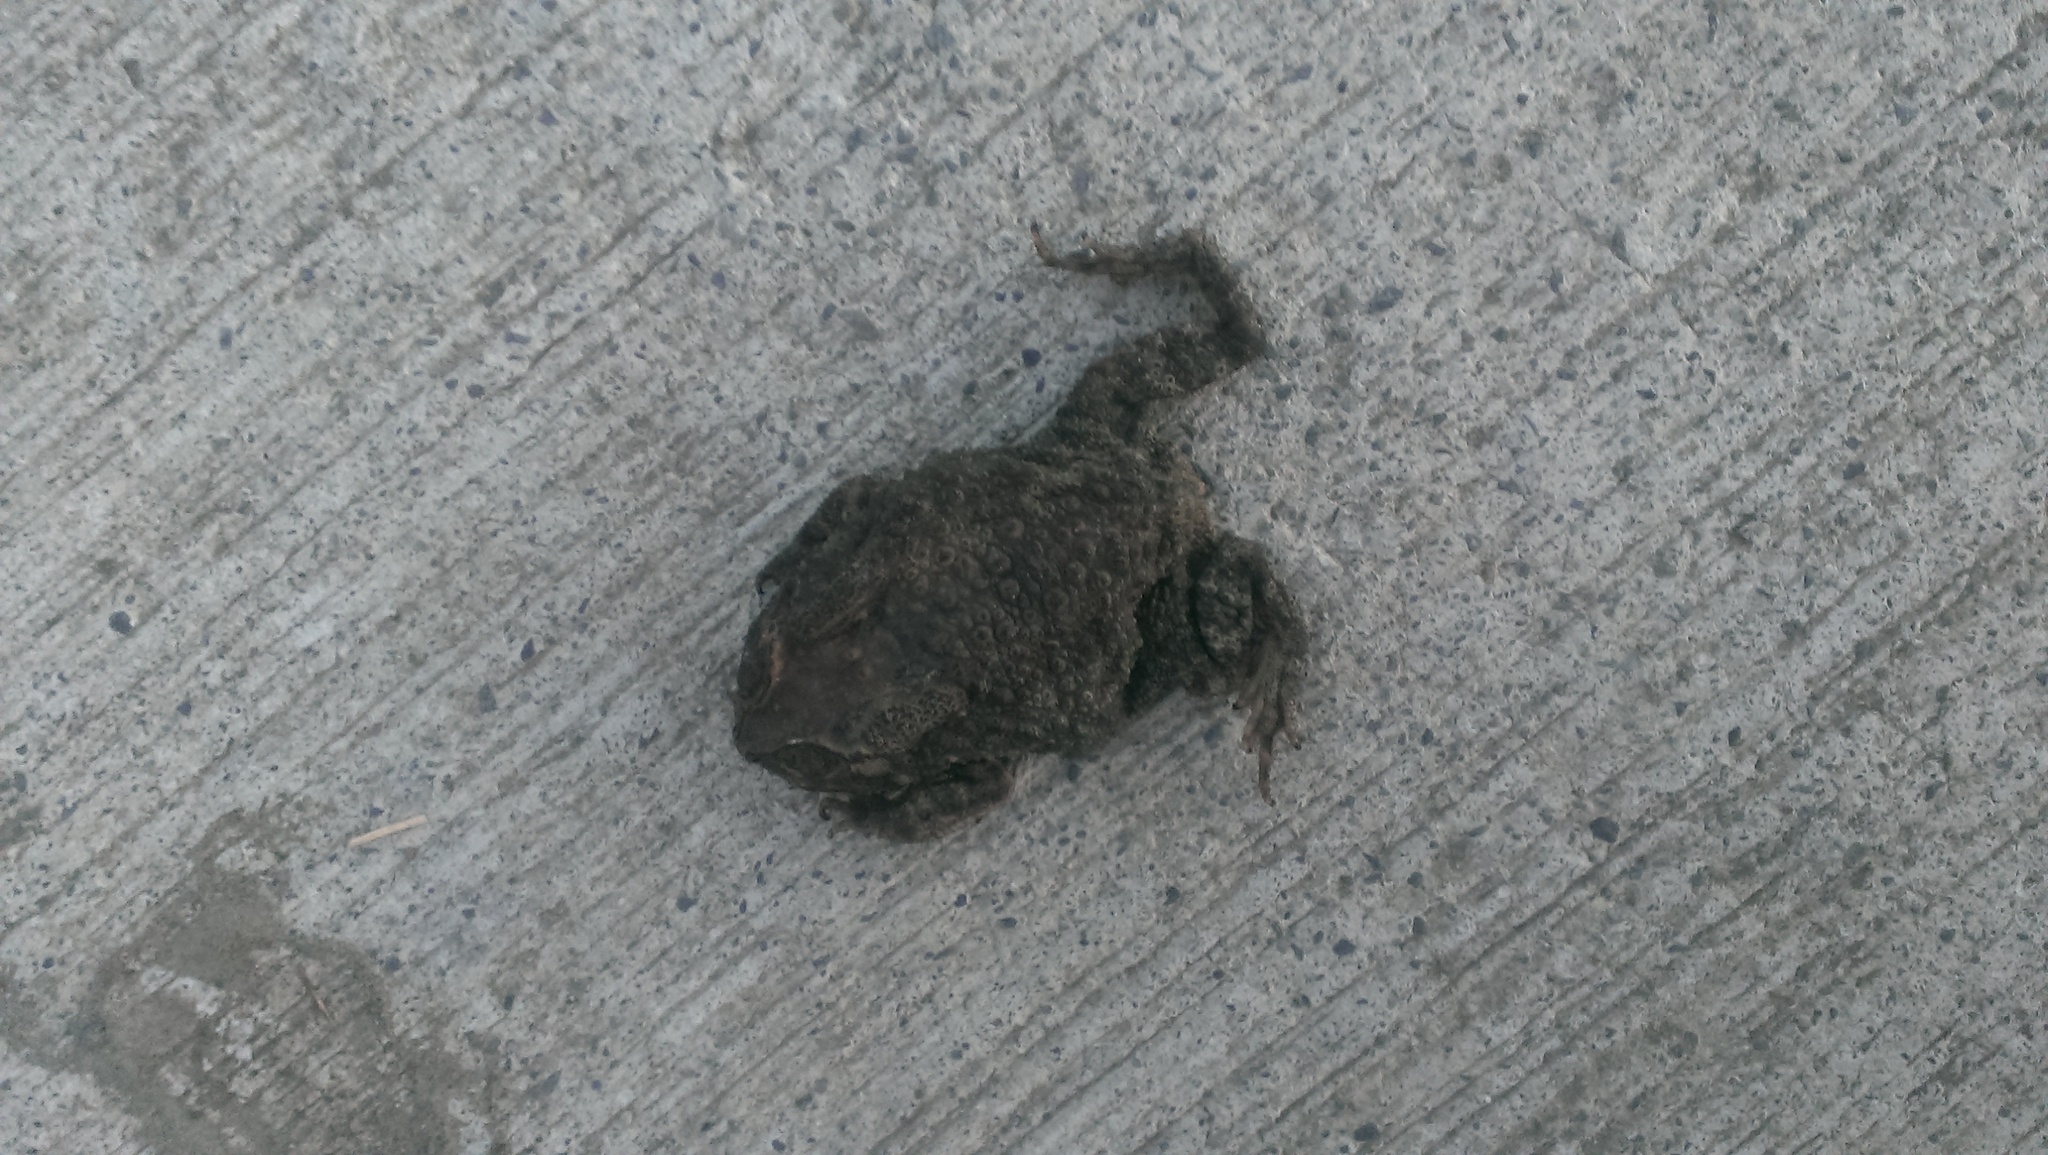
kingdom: Animalia
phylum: Chordata
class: Amphibia
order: Anura
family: Bufonidae
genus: Duttaphrynus
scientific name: Duttaphrynus melanostictus
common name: Common sunda toad
